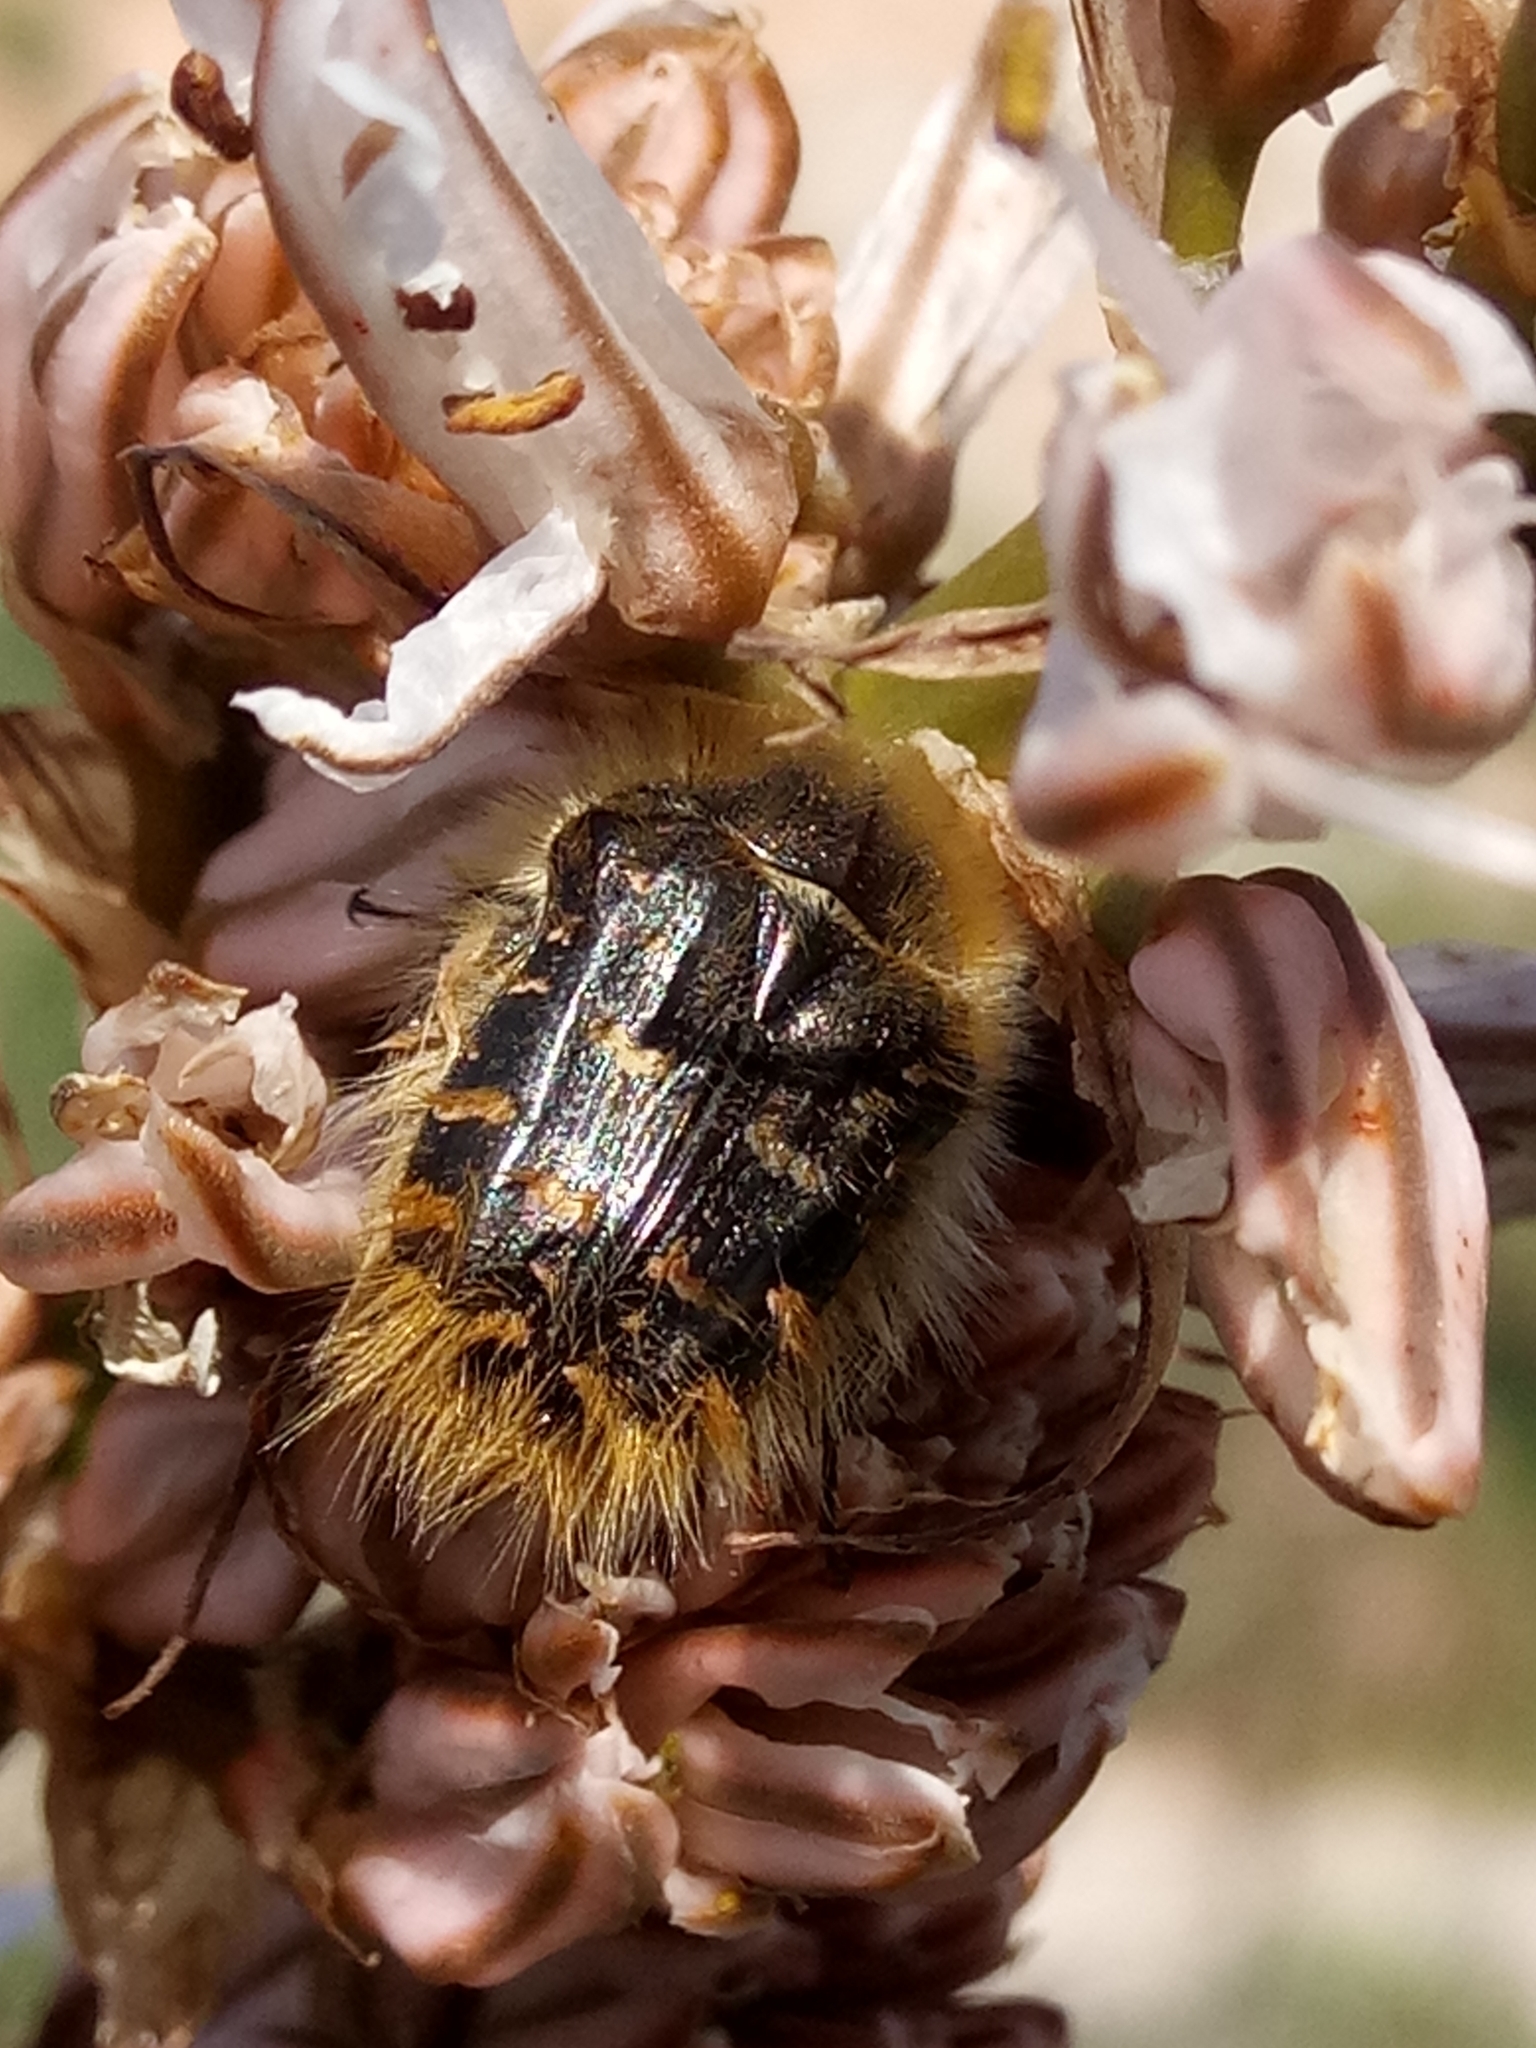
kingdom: Animalia
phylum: Arthropoda
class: Insecta
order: Coleoptera
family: Scarabaeidae
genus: Tropinota
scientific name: Tropinota squalida
